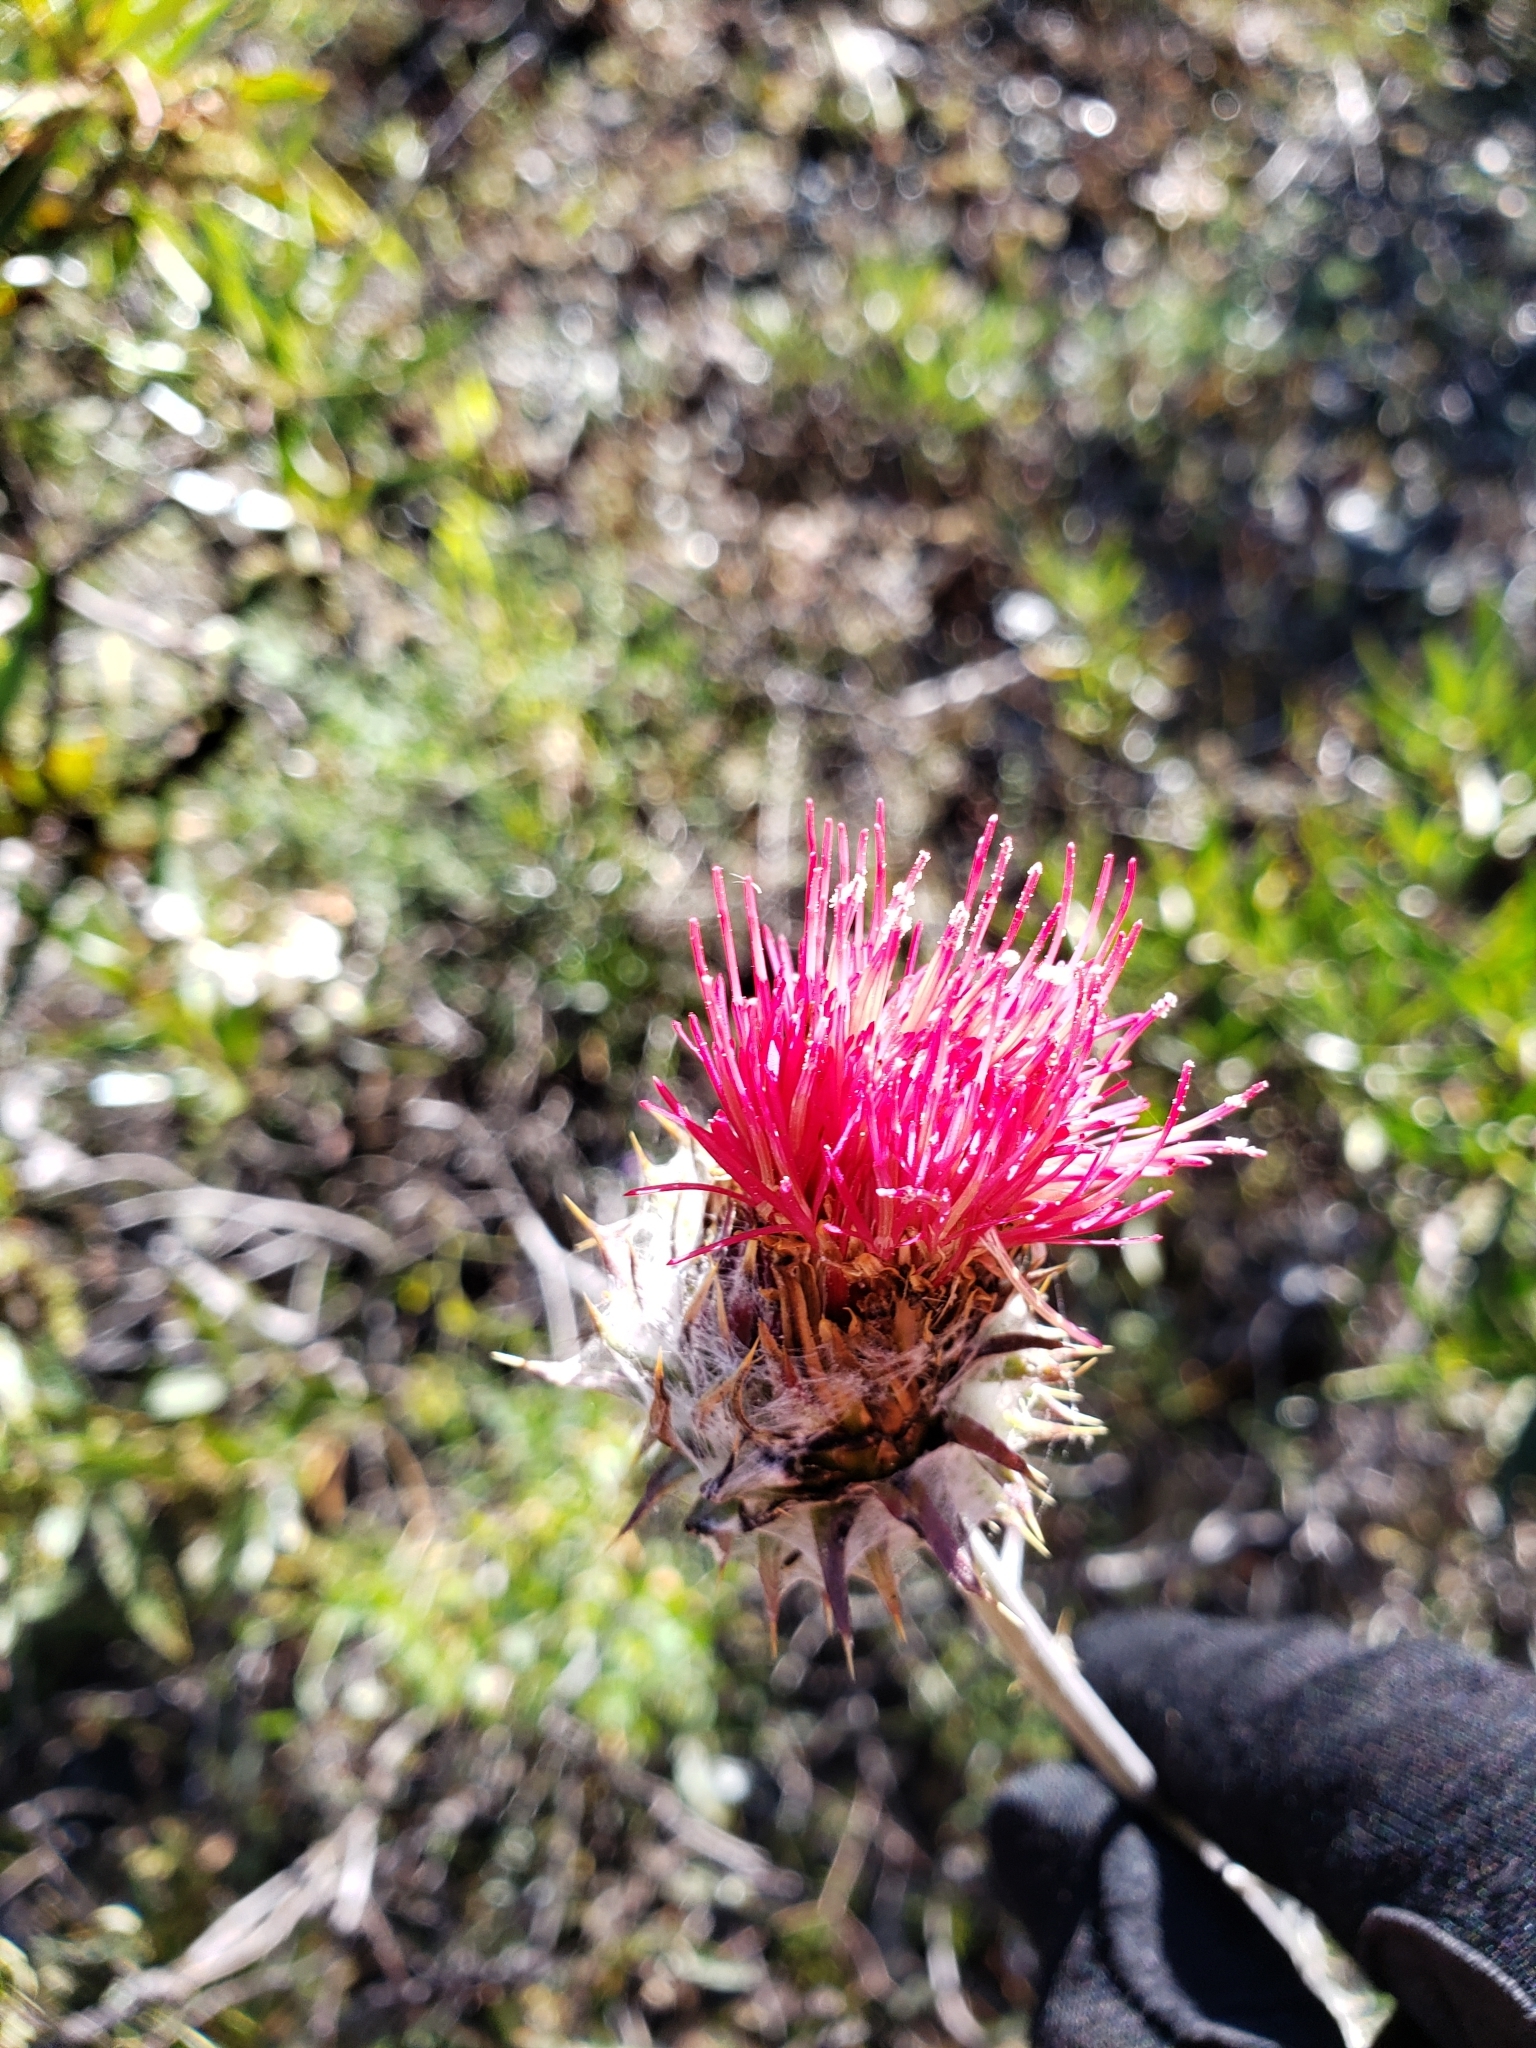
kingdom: Plantae
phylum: Tracheophyta
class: Magnoliopsida
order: Asterales
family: Asteraceae
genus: Cirsium
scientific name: Cirsium occidentale
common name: Western thistle
